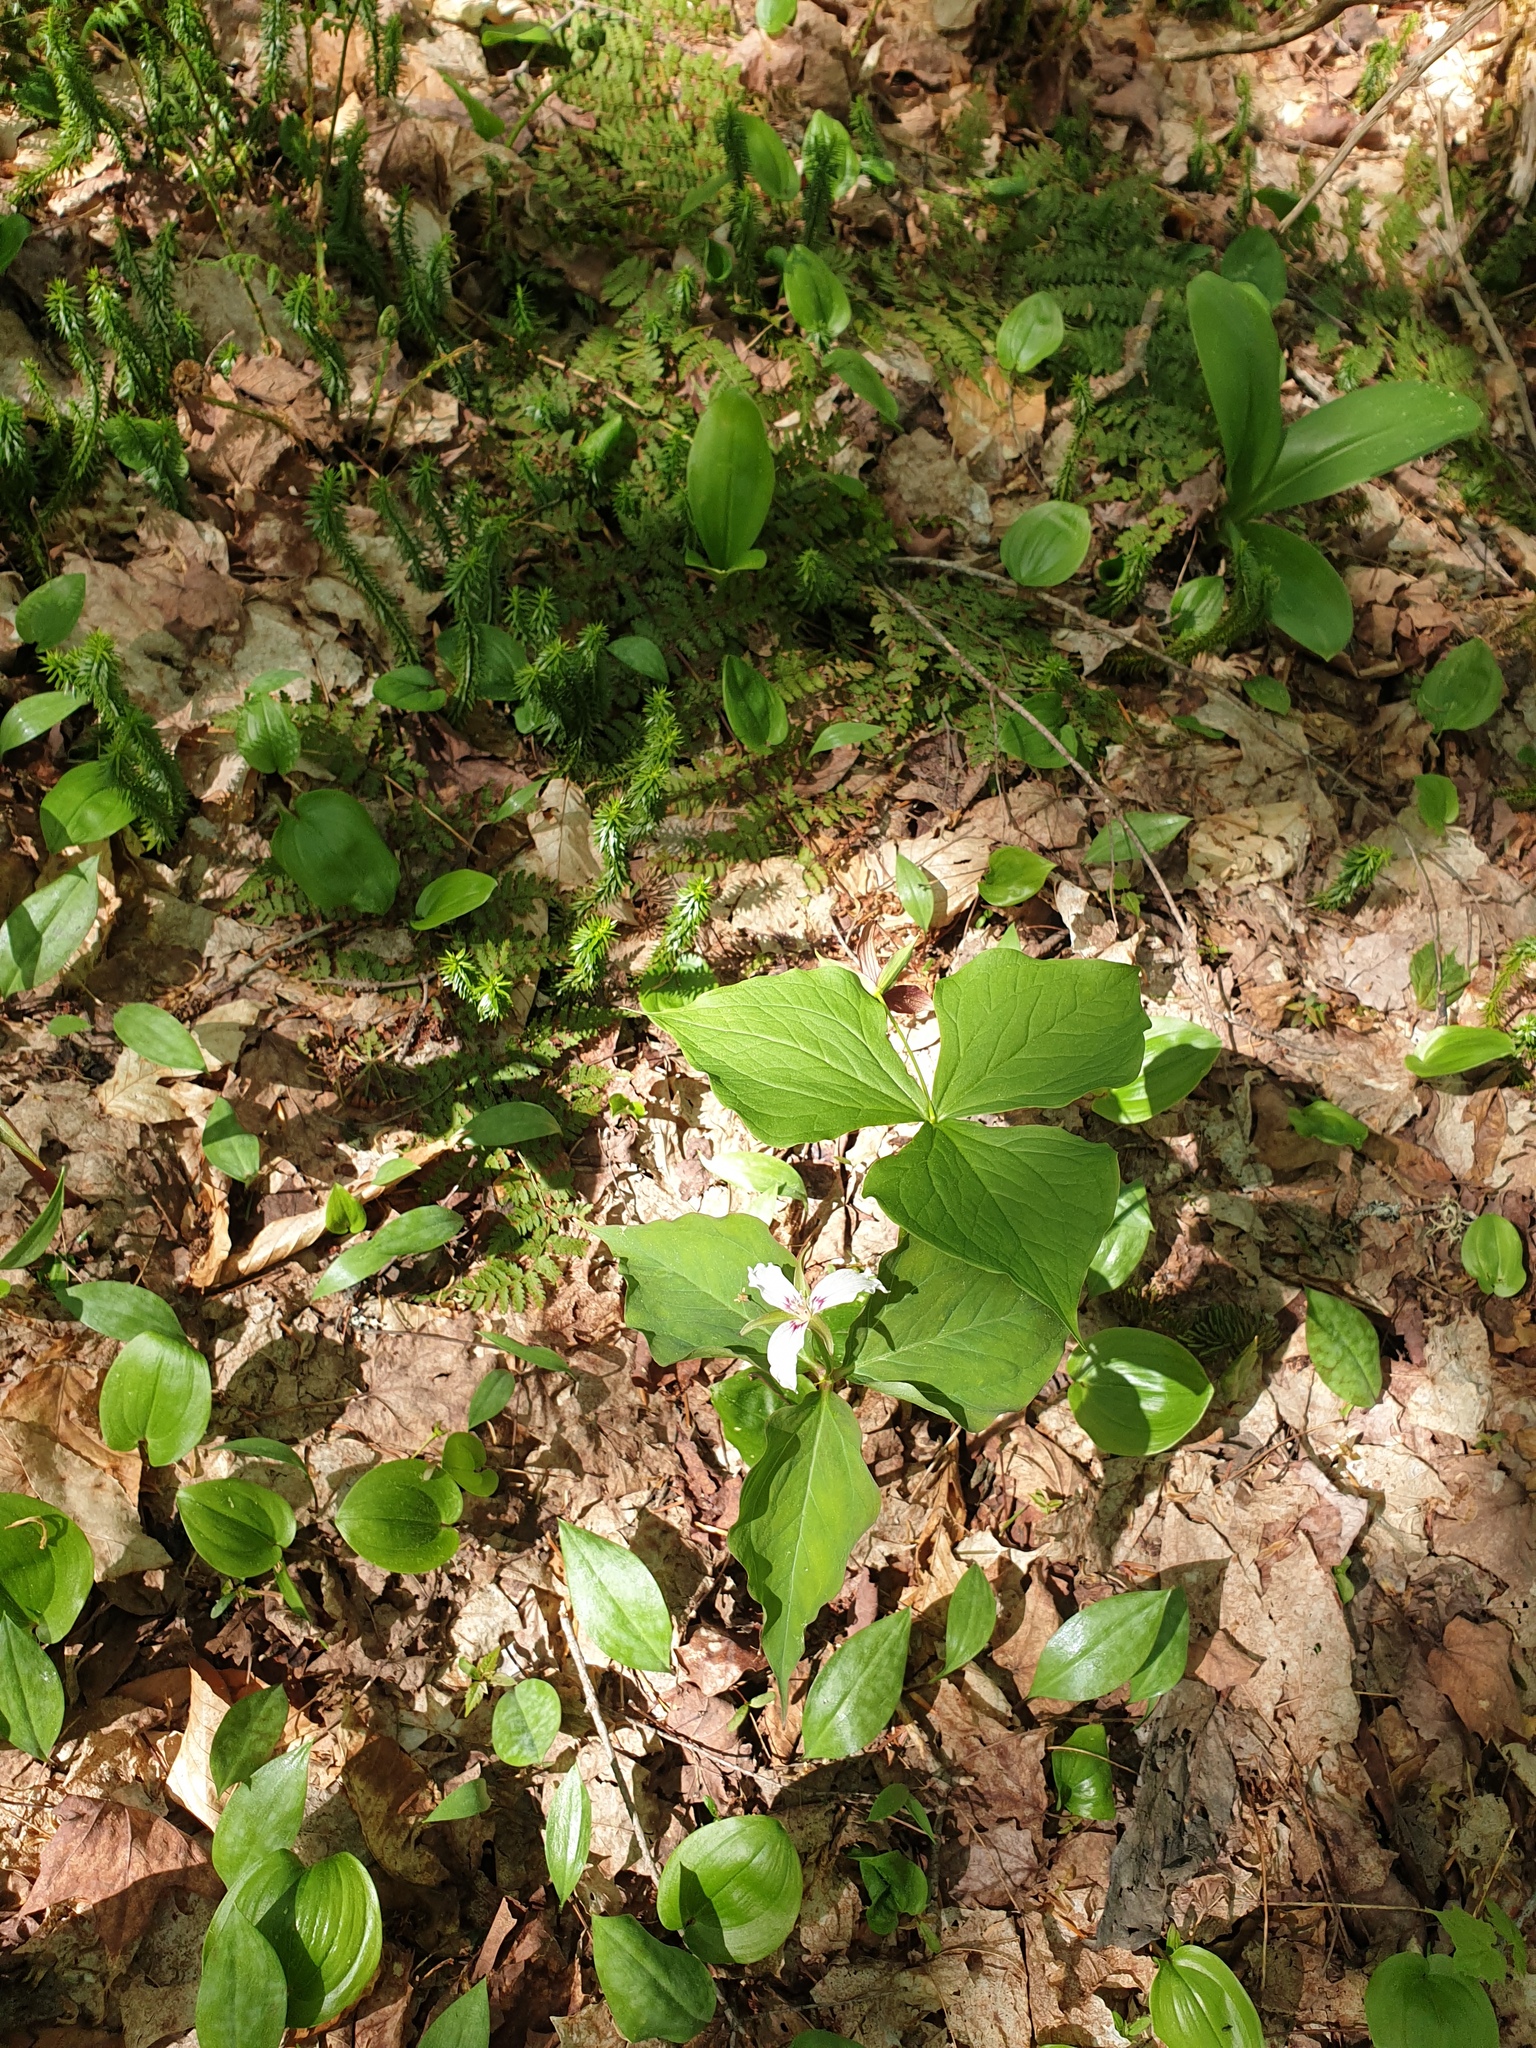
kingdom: Plantae
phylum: Tracheophyta
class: Liliopsida
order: Liliales
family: Liliaceae
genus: Erythronium
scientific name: Erythronium americanum
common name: Yellow adder's-tongue
